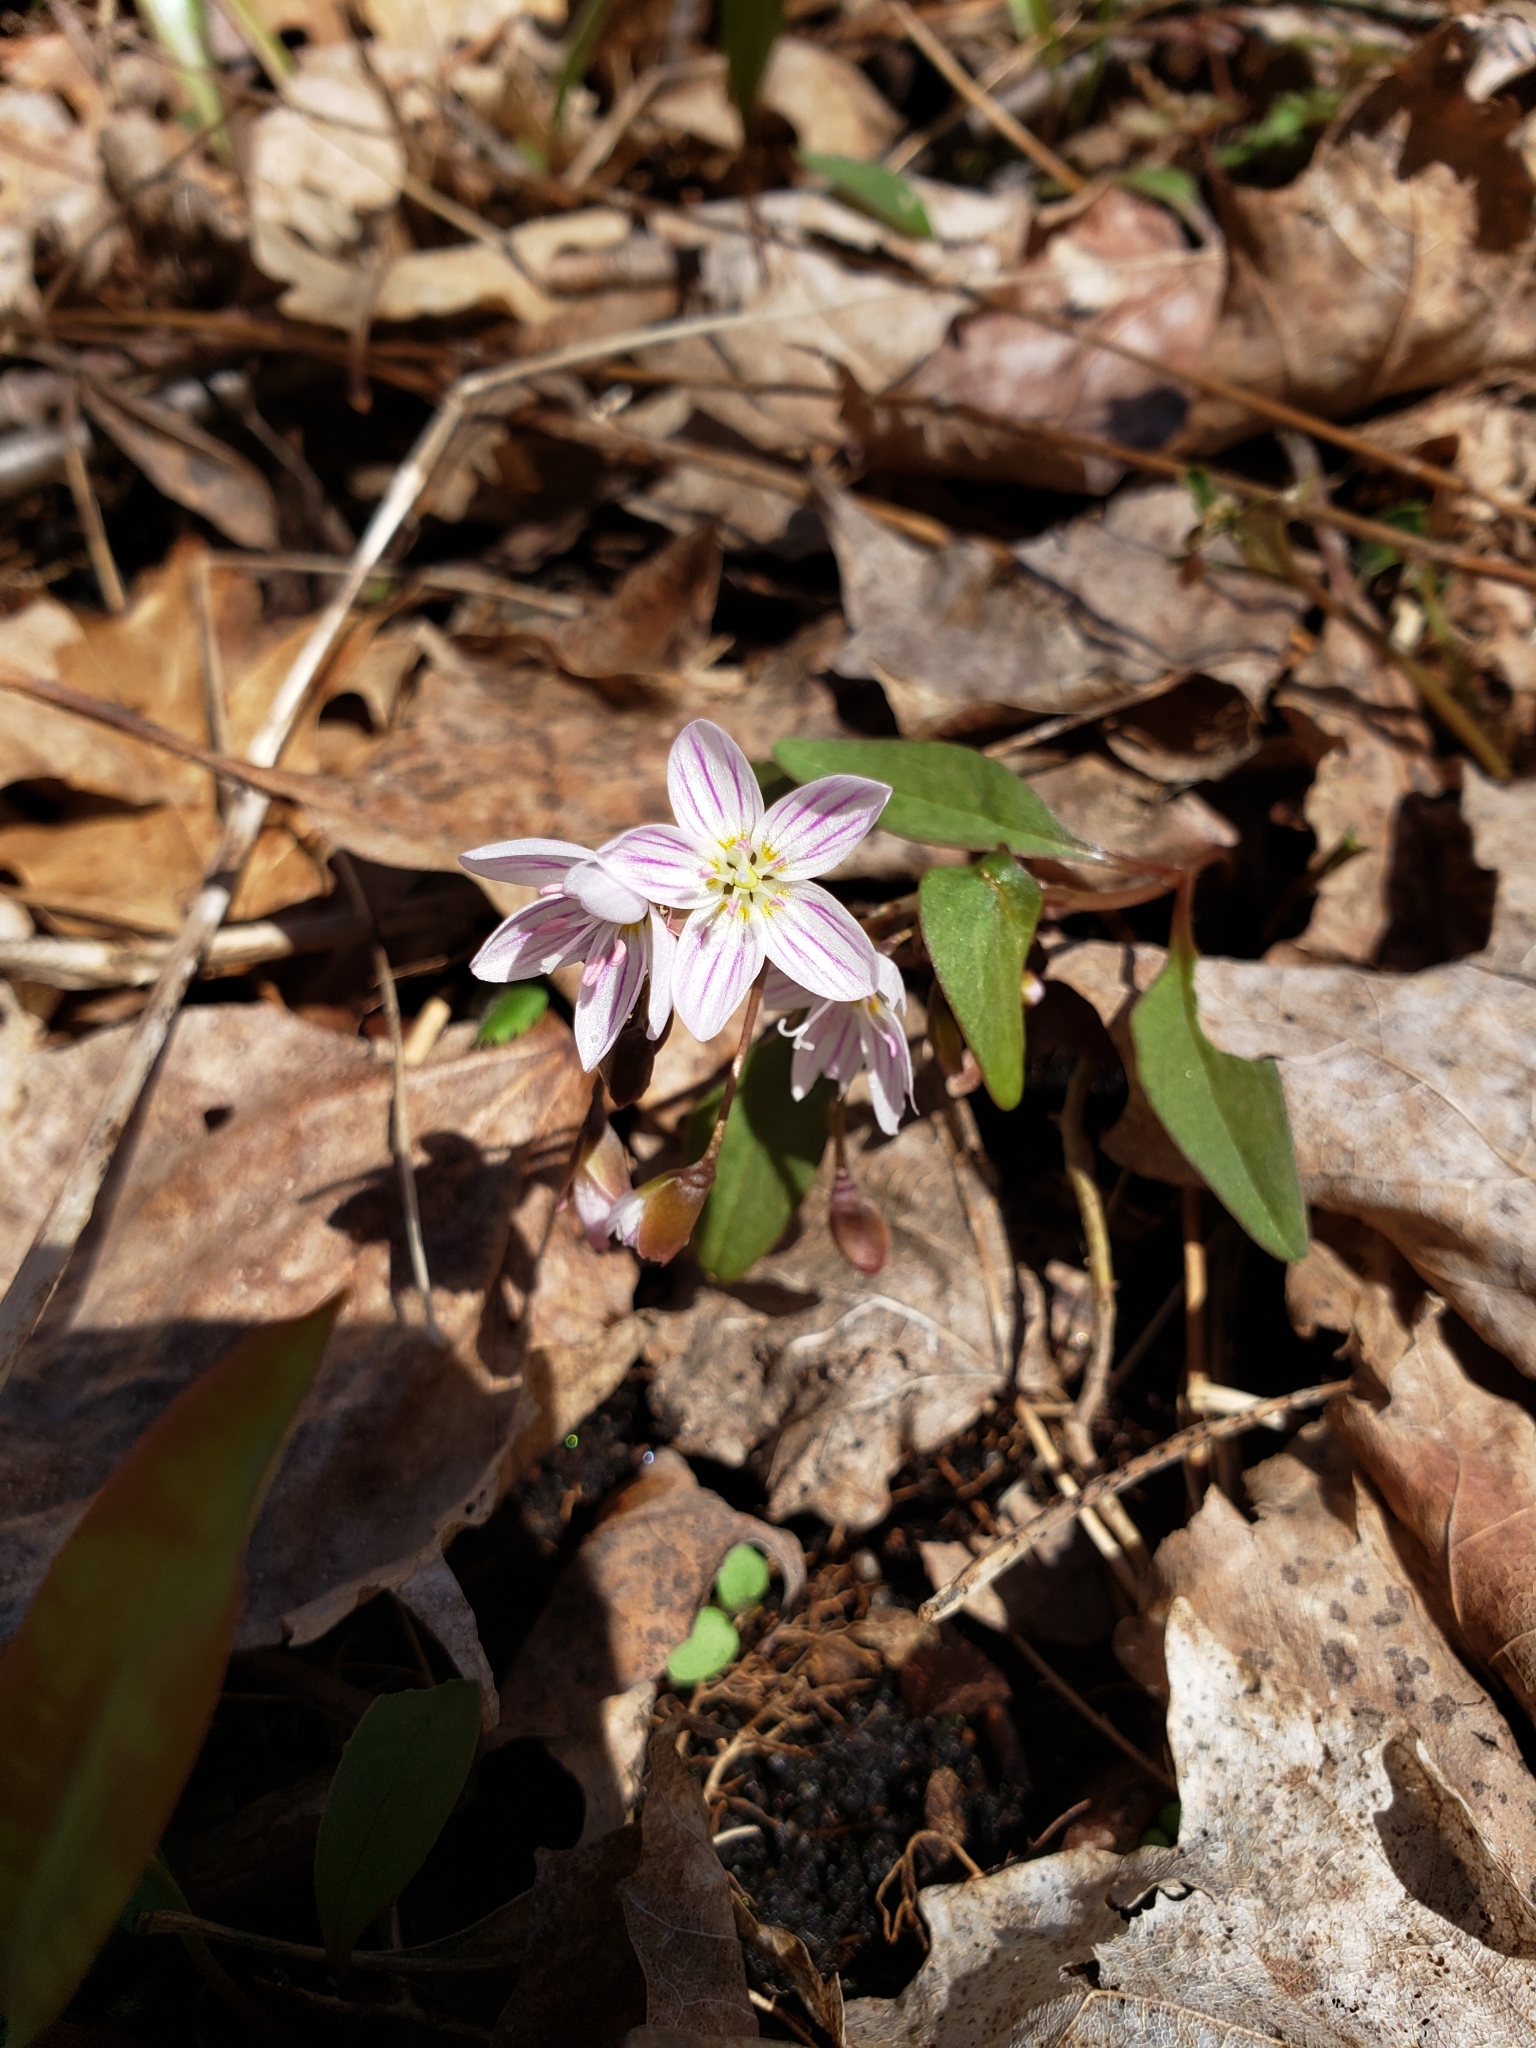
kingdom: Plantae
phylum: Tracheophyta
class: Magnoliopsida
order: Caryophyllales
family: Montiaceae
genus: Claytonia
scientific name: Claytonia caroliniana
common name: Carolina spring beauty
